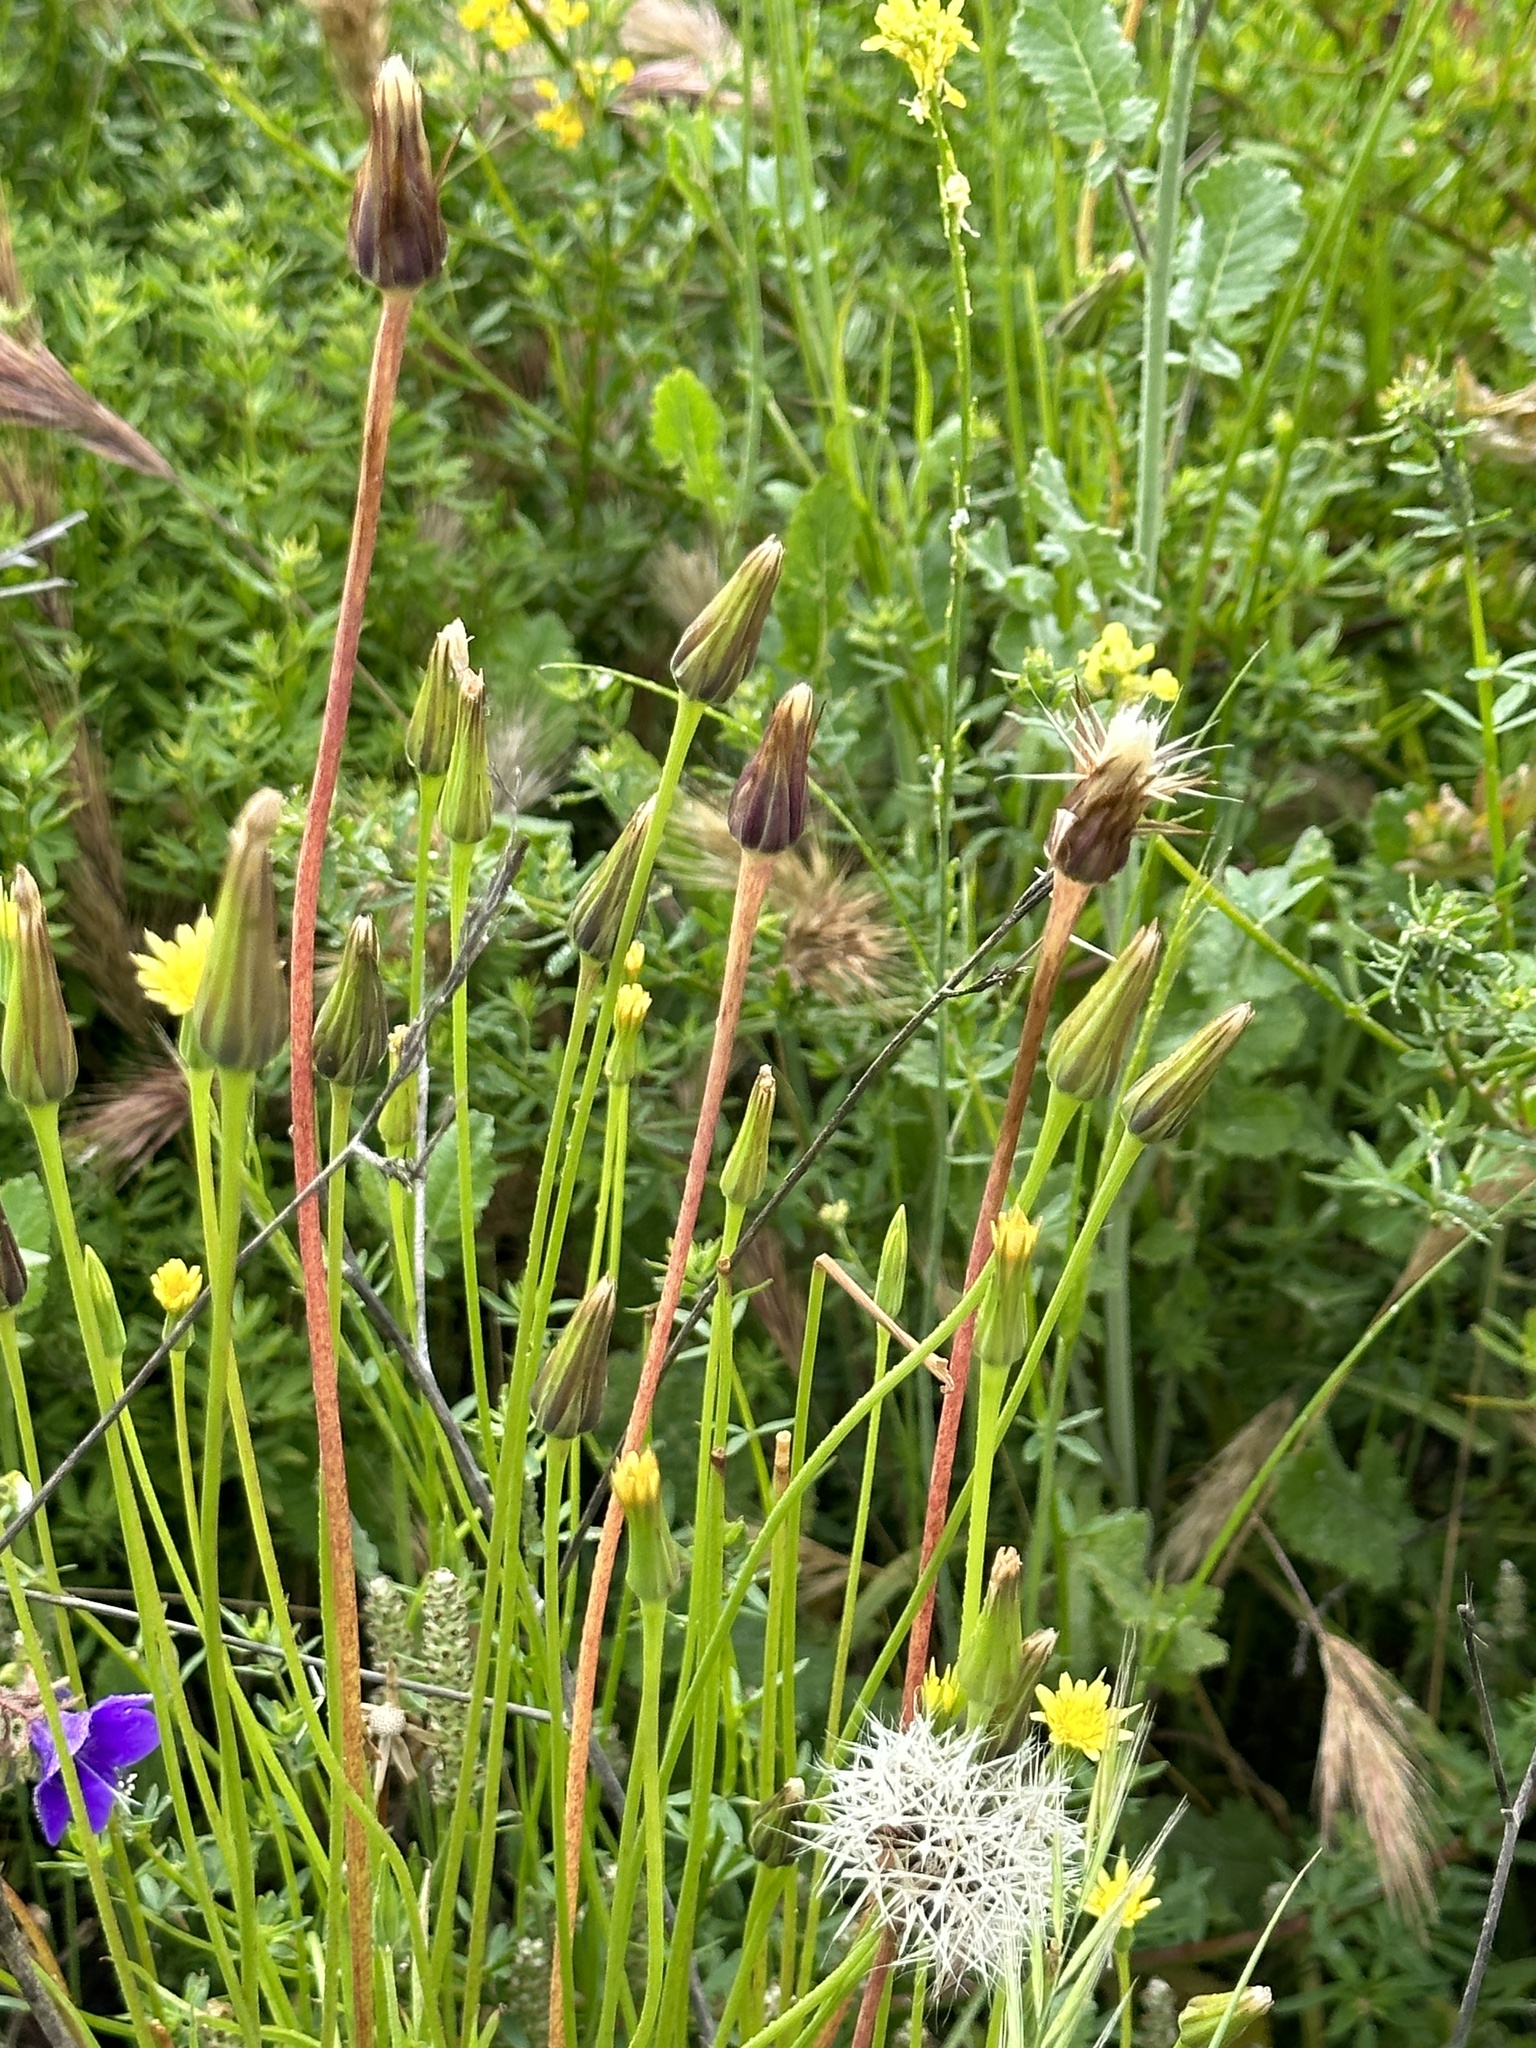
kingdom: Plantae
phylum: Tracheophyta
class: Magnoliopsida
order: Asterales
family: Asteraceae
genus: Microseris
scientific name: Microseris lindleyi
